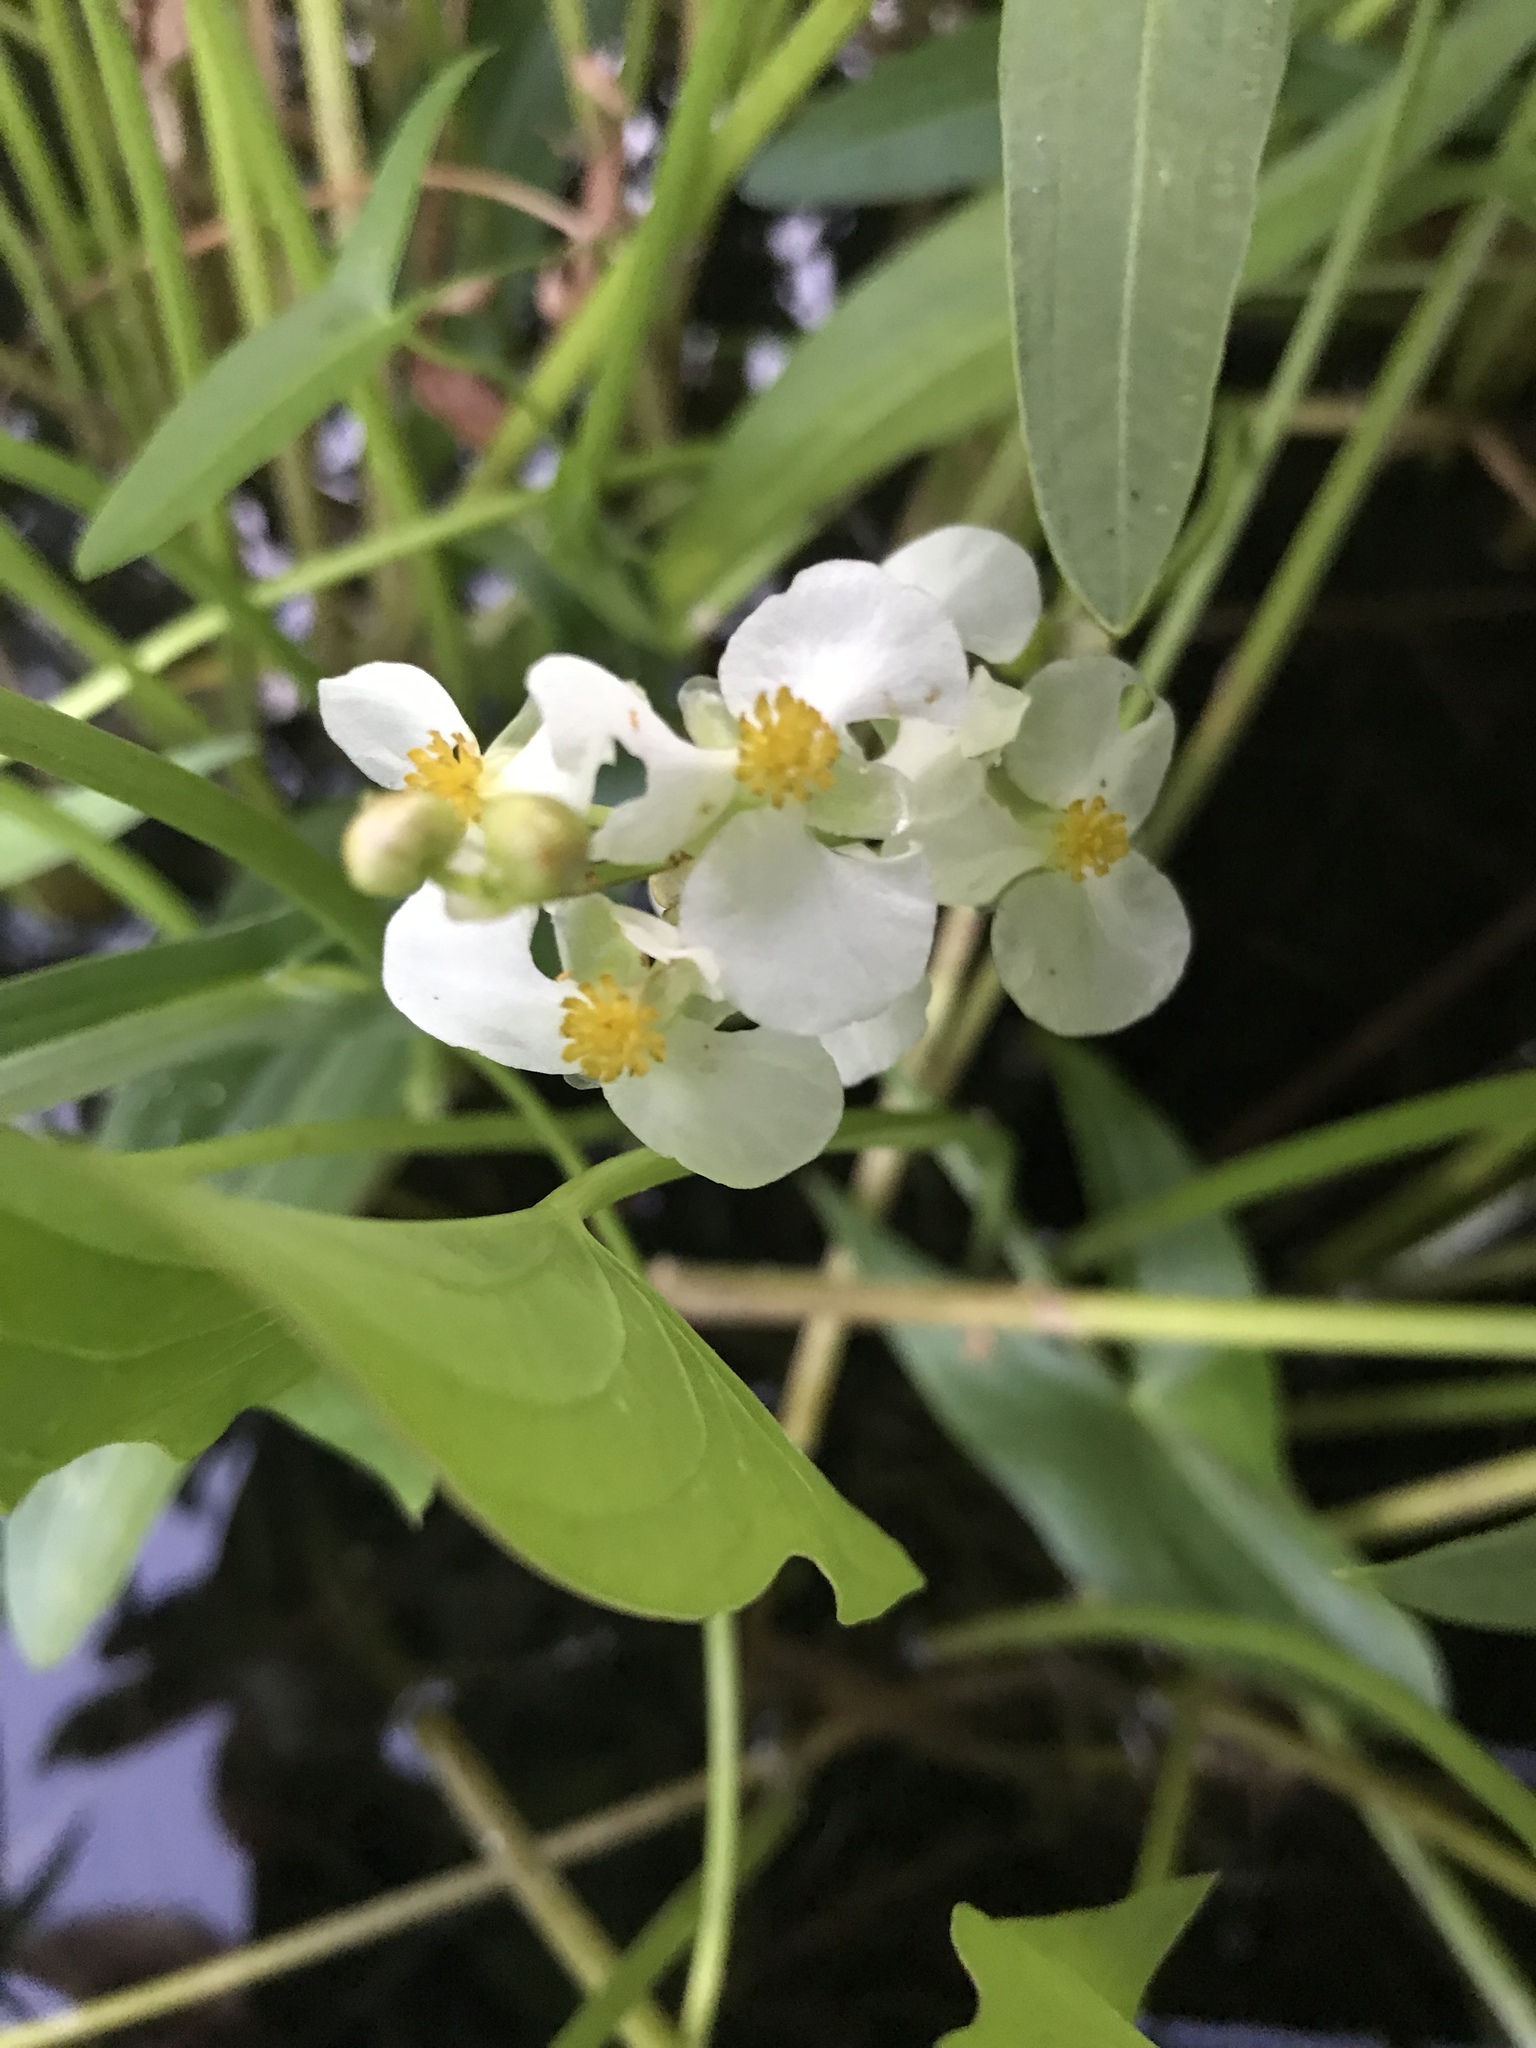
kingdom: Plantae
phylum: Tracheophyta
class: Liliopsida
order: Alismatales
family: Alismataceae
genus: Sagittaria
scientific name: Sagittaria latifolia
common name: Duck-potato
